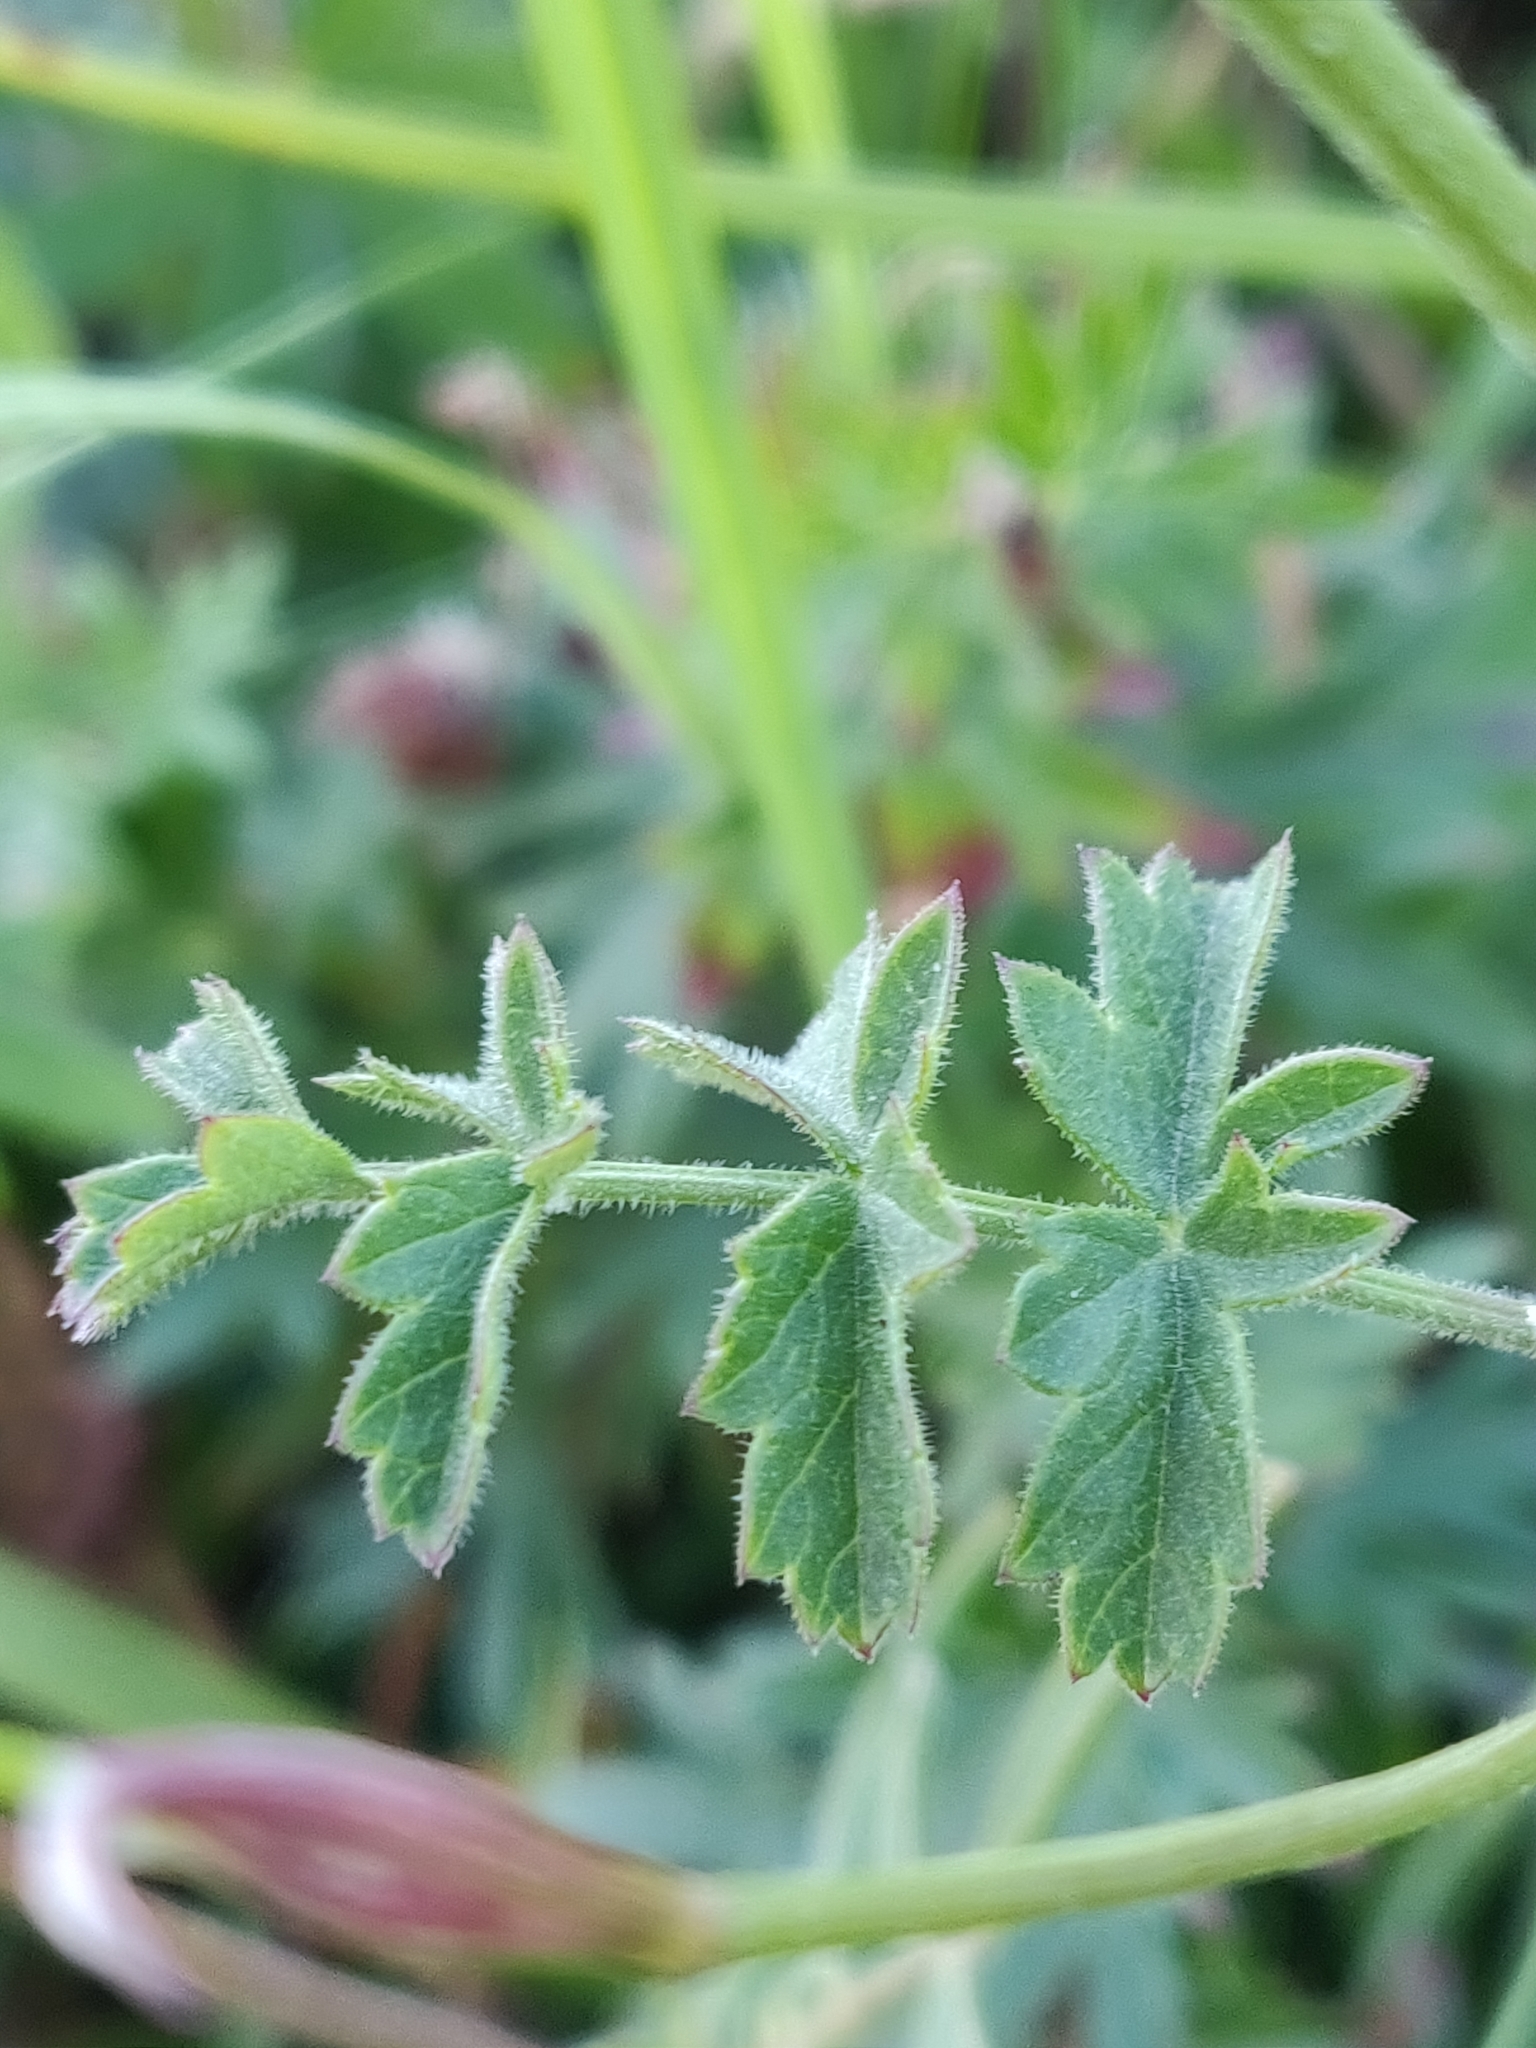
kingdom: Plantae
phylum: Tracheophyta
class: Magnoliopsida
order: Apiales
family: Apiaceae
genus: Pimpinella
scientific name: Pimpinella saxifraga
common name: Burnet-saxifrage
